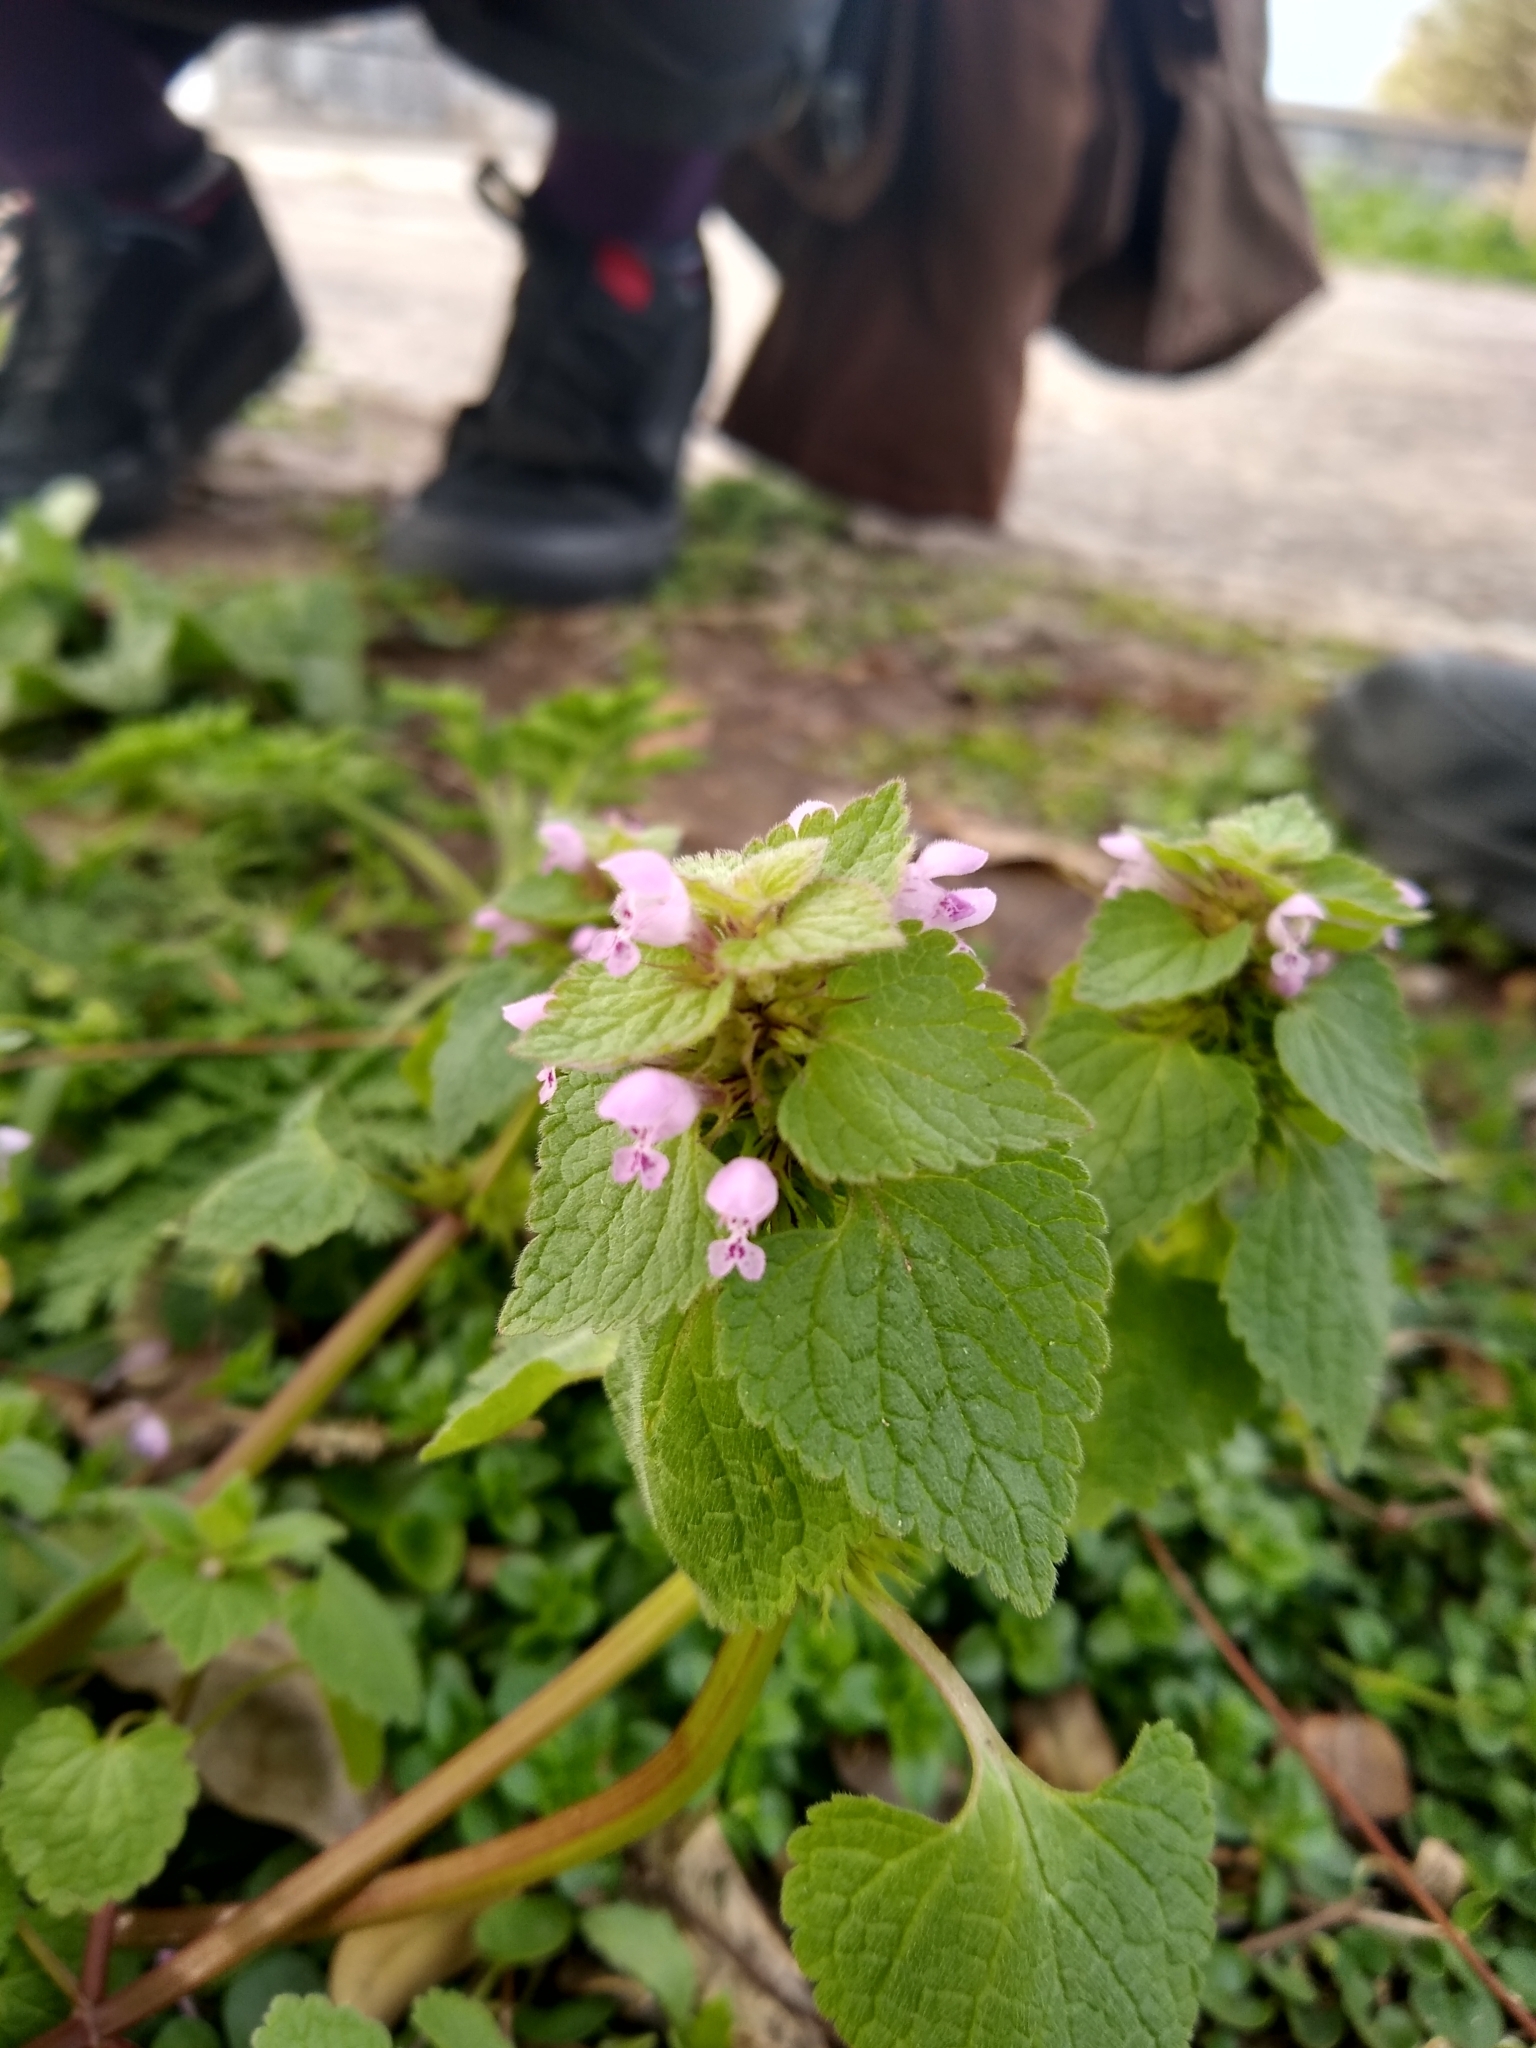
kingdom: Plantae
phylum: Tracheophyta
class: Magnoliopsida
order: Lamiales
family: Lamiaceae
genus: Lamium
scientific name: Lamium purpureum
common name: Red dead-nettle
